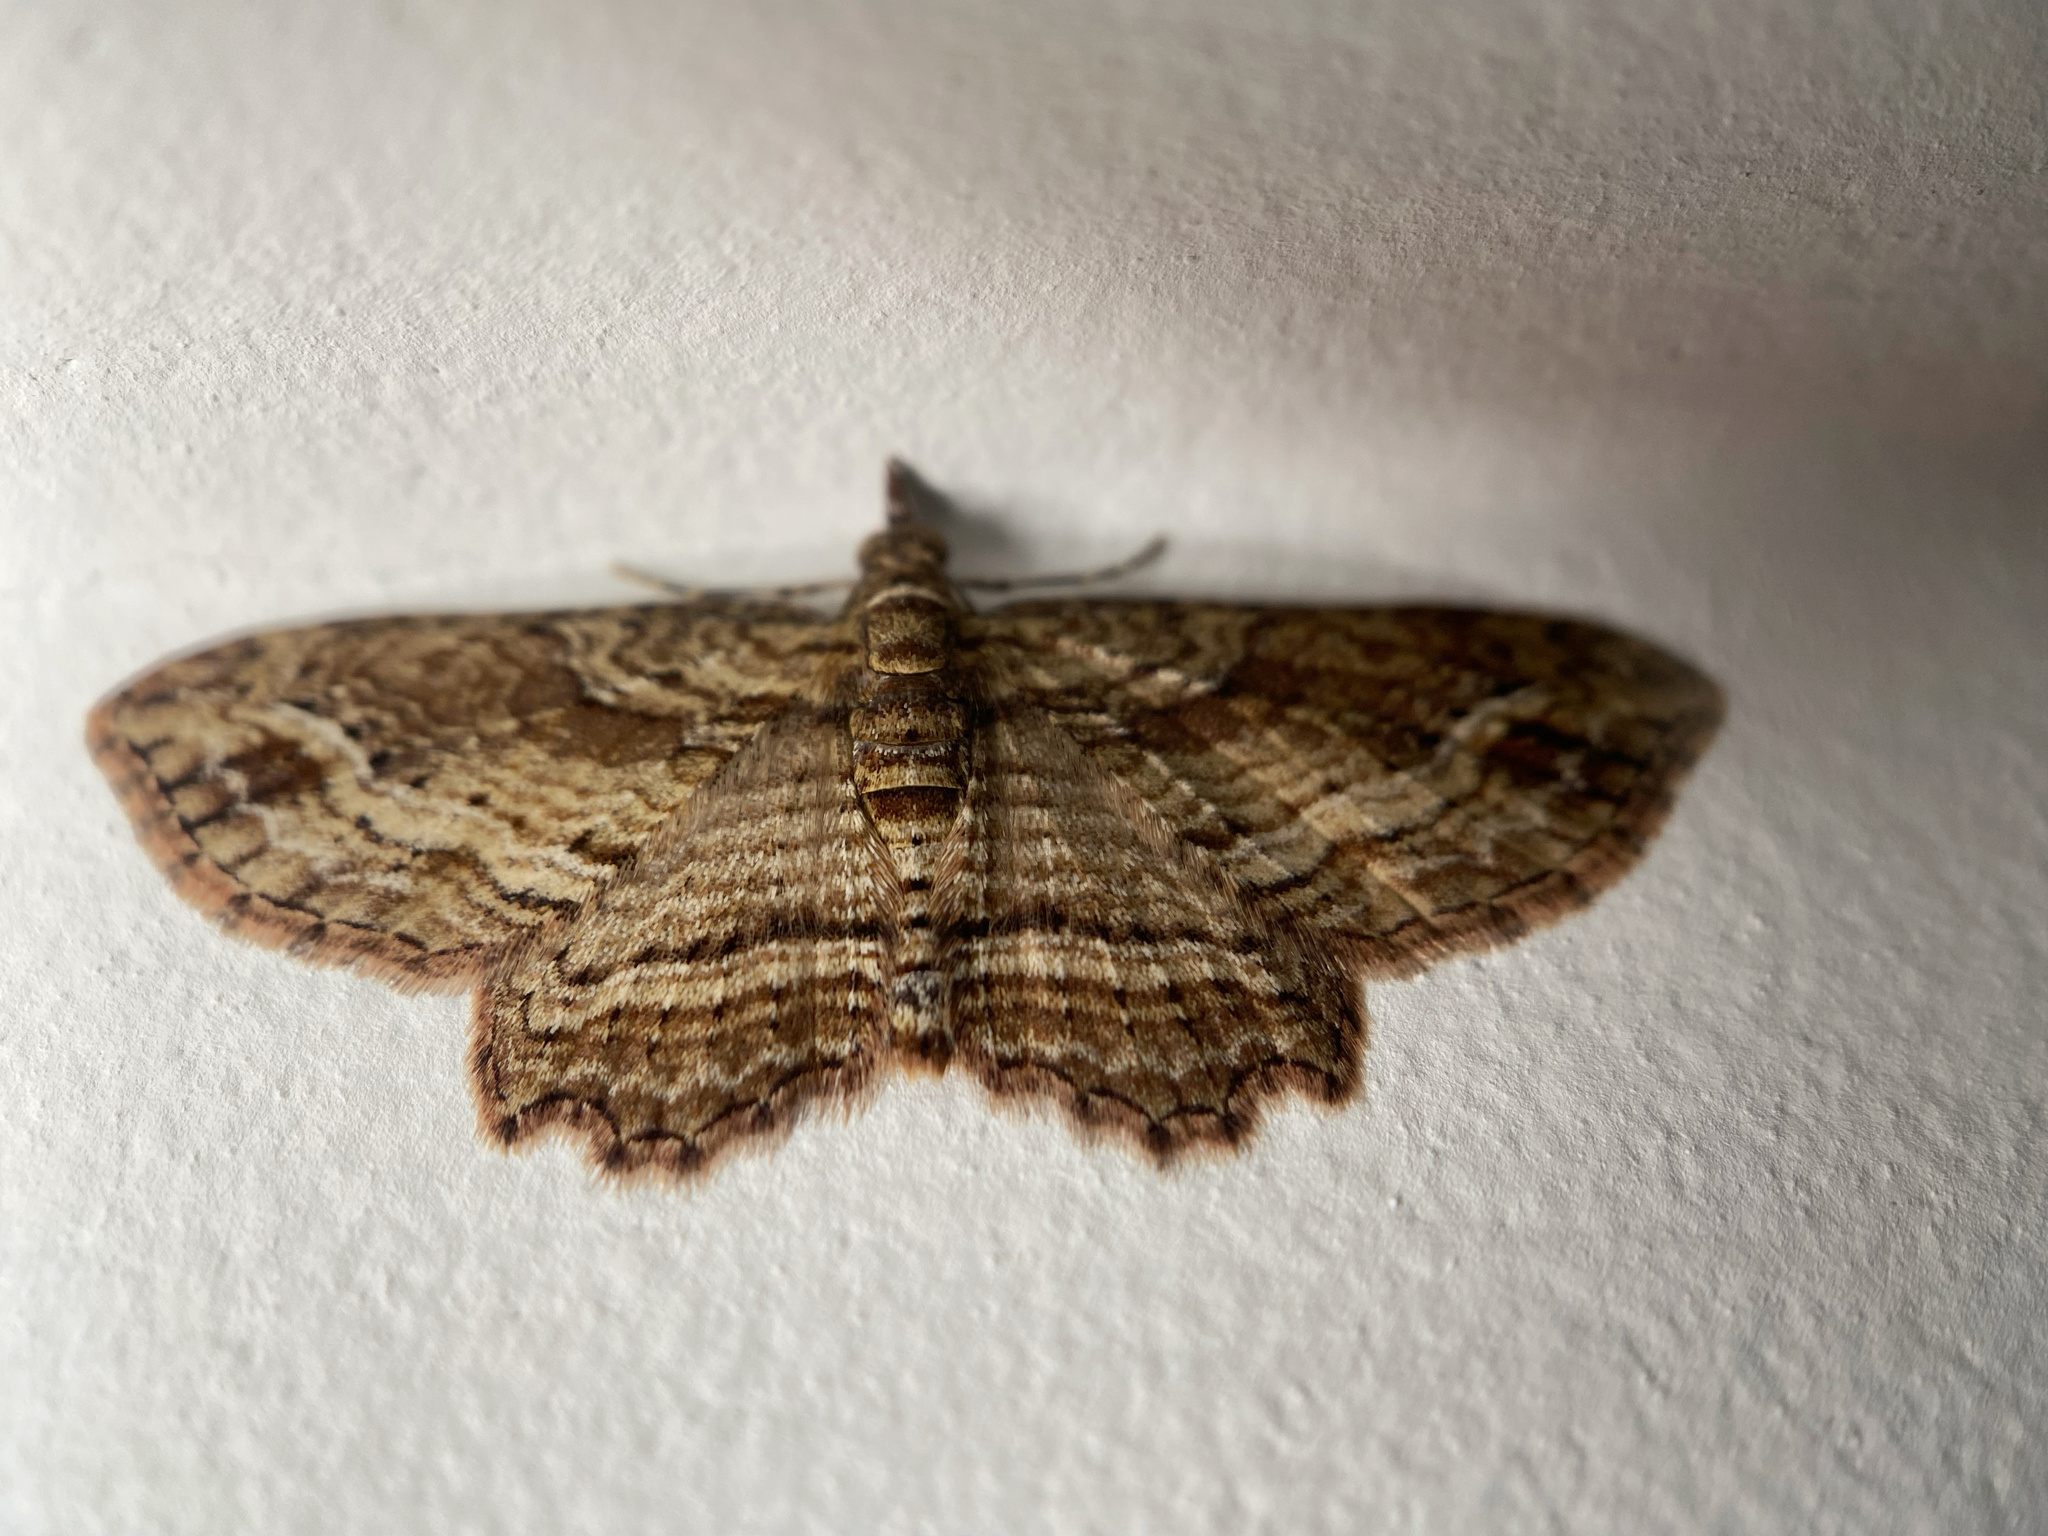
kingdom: Animalia
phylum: Arthropoda
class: Insecta
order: Lepidoptera
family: Geometridae
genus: Chloroclystis
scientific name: Chloroclystis filata
